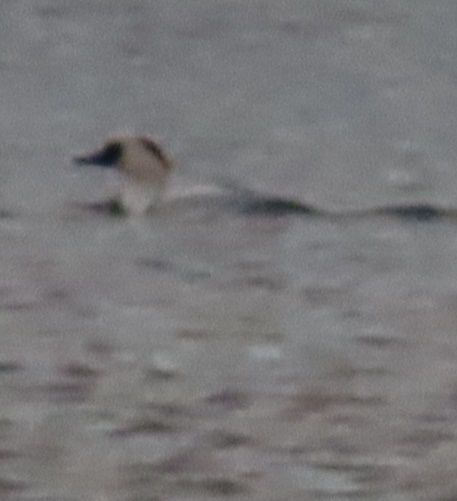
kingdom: Animalia
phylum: Chordata
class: Aves
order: Anseriformes
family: Anatidae
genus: Mergellus
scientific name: Mergellus albellus
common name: Smew
